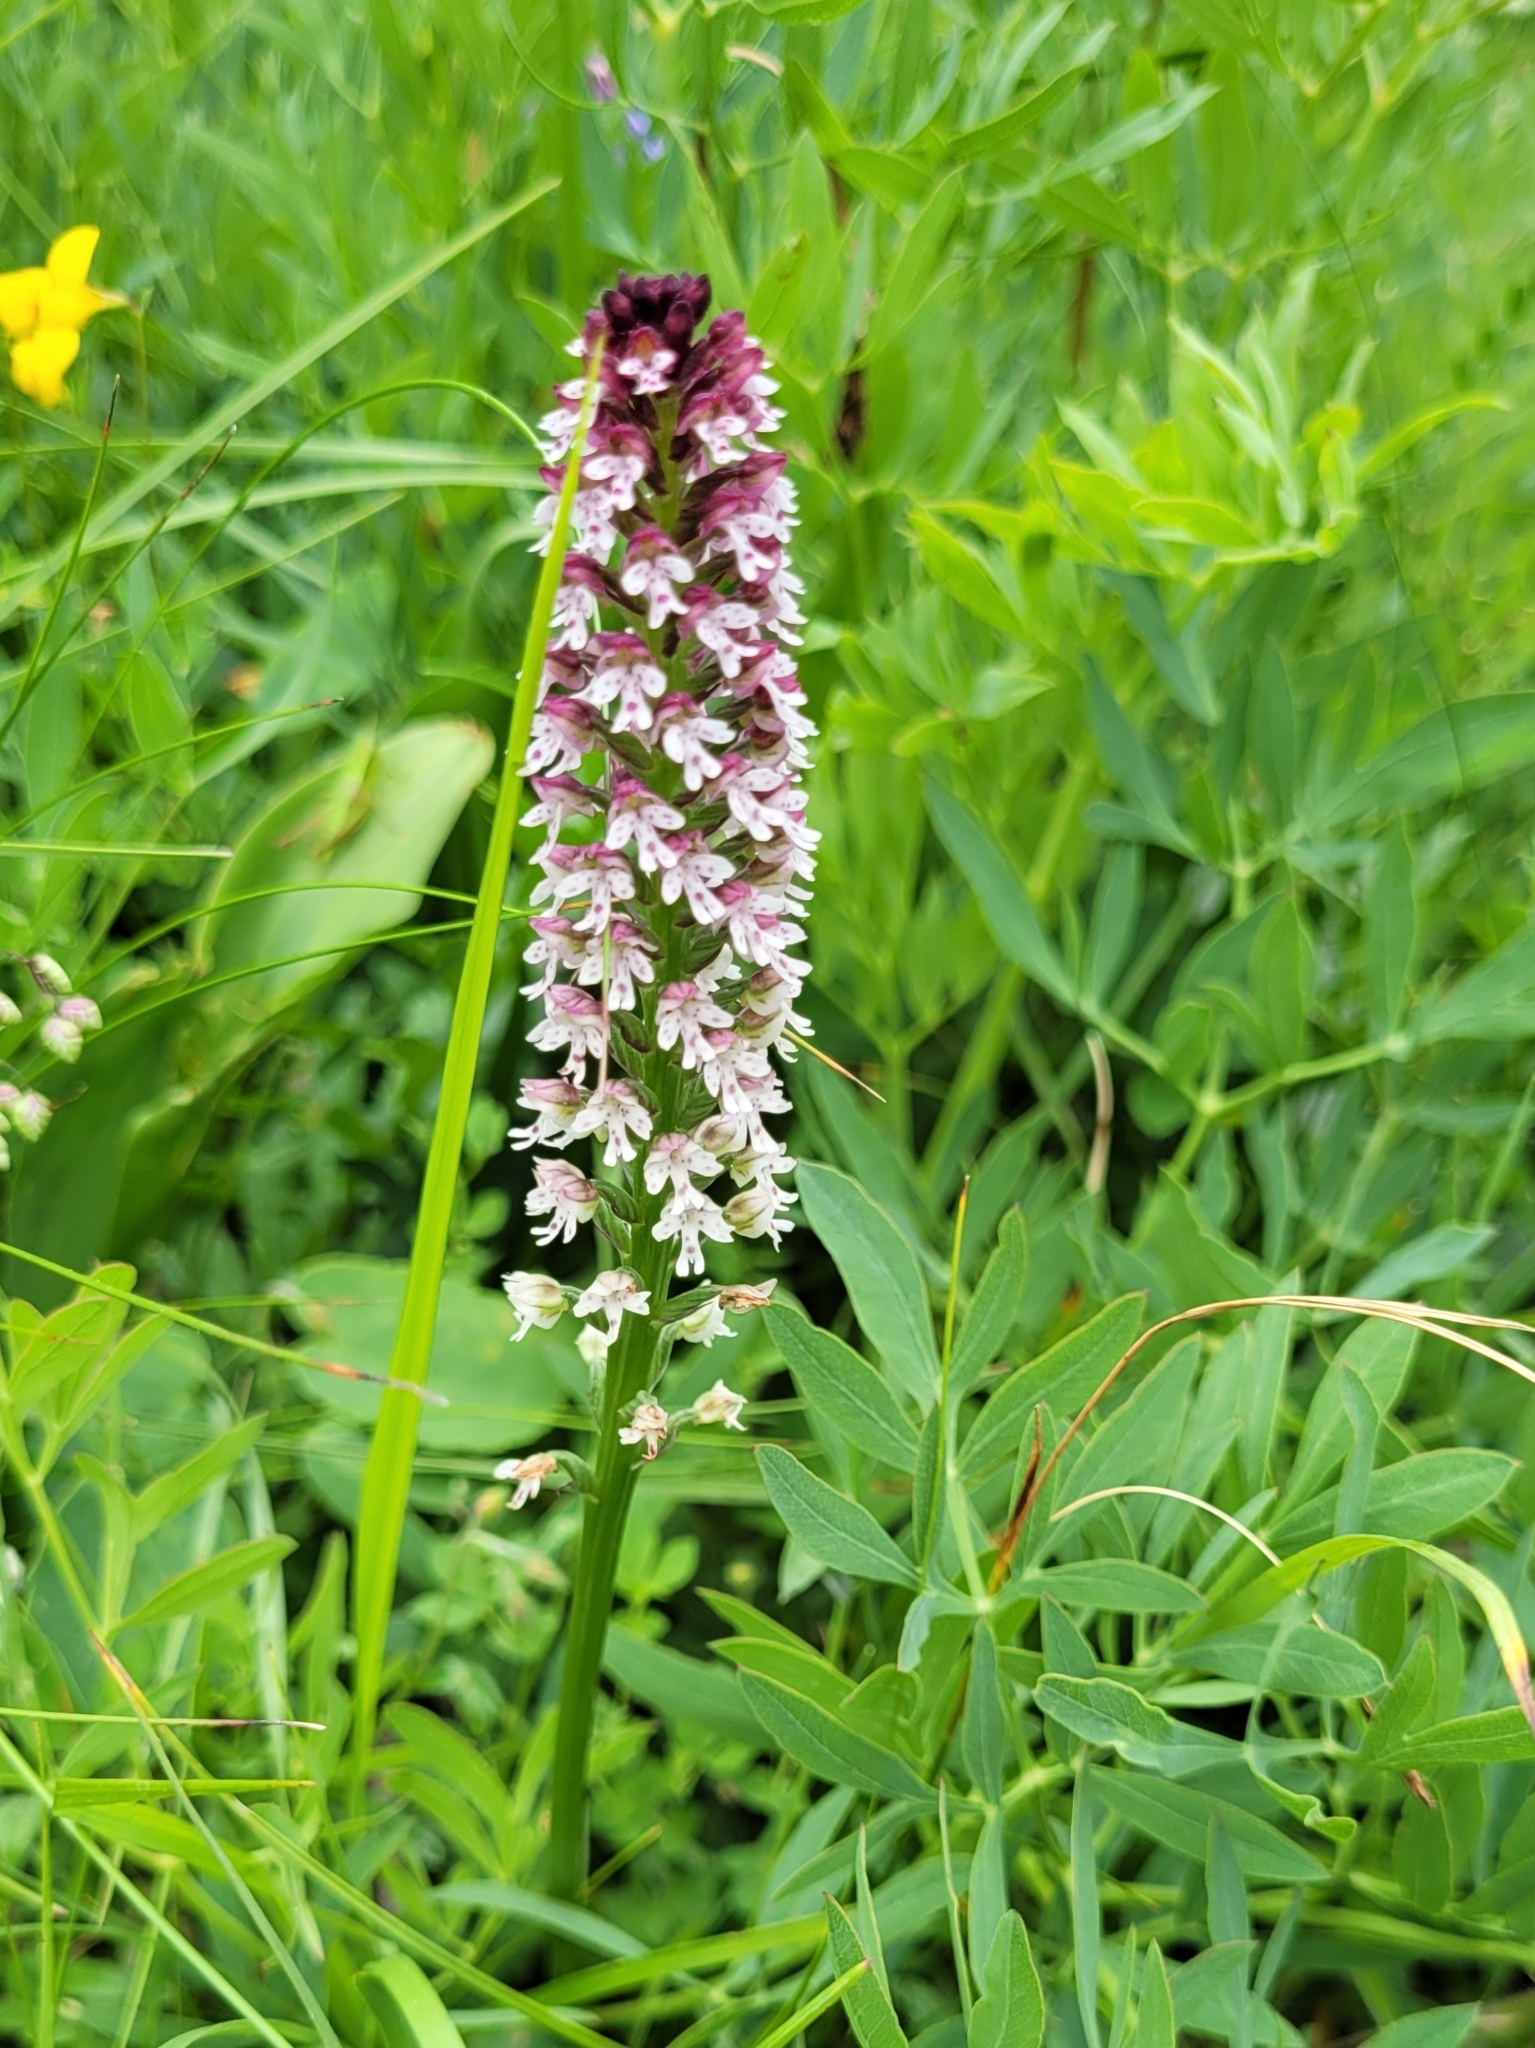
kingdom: Plantae
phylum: Tracheophyta
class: Liliopsida
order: Asparagales
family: Orchidaceae
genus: Neotinea
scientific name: Neotinea ustulata
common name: Burnt orchid
